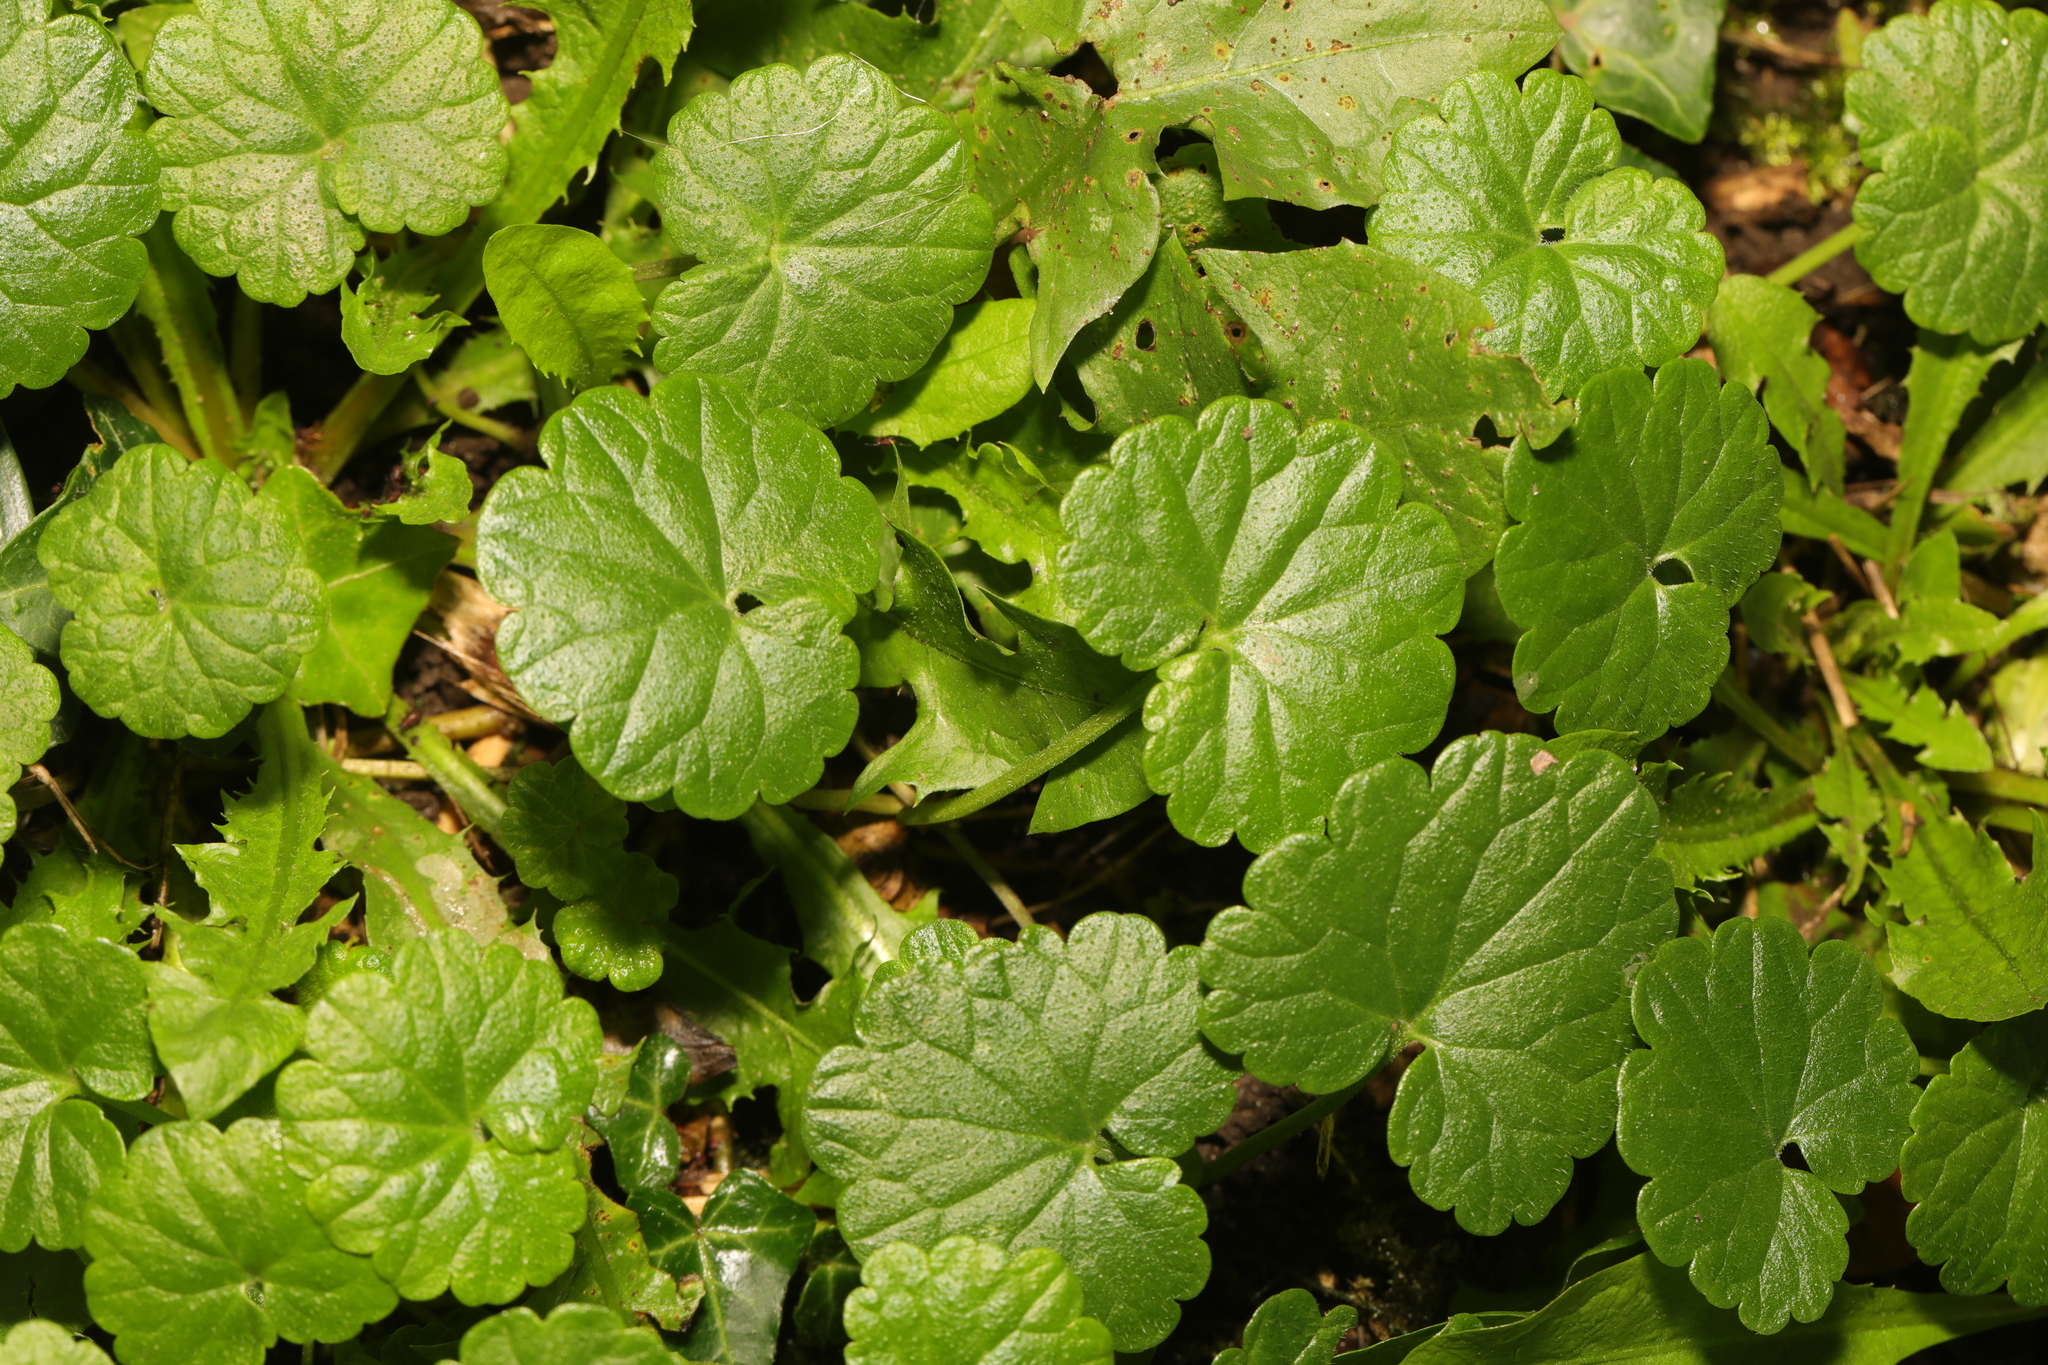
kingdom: Plantae
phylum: Tracheophyta
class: Magnoliopsida
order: Lamiales
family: Lamiaceae
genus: Glechoma
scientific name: Glechoma hederacea
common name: Ground ivy
